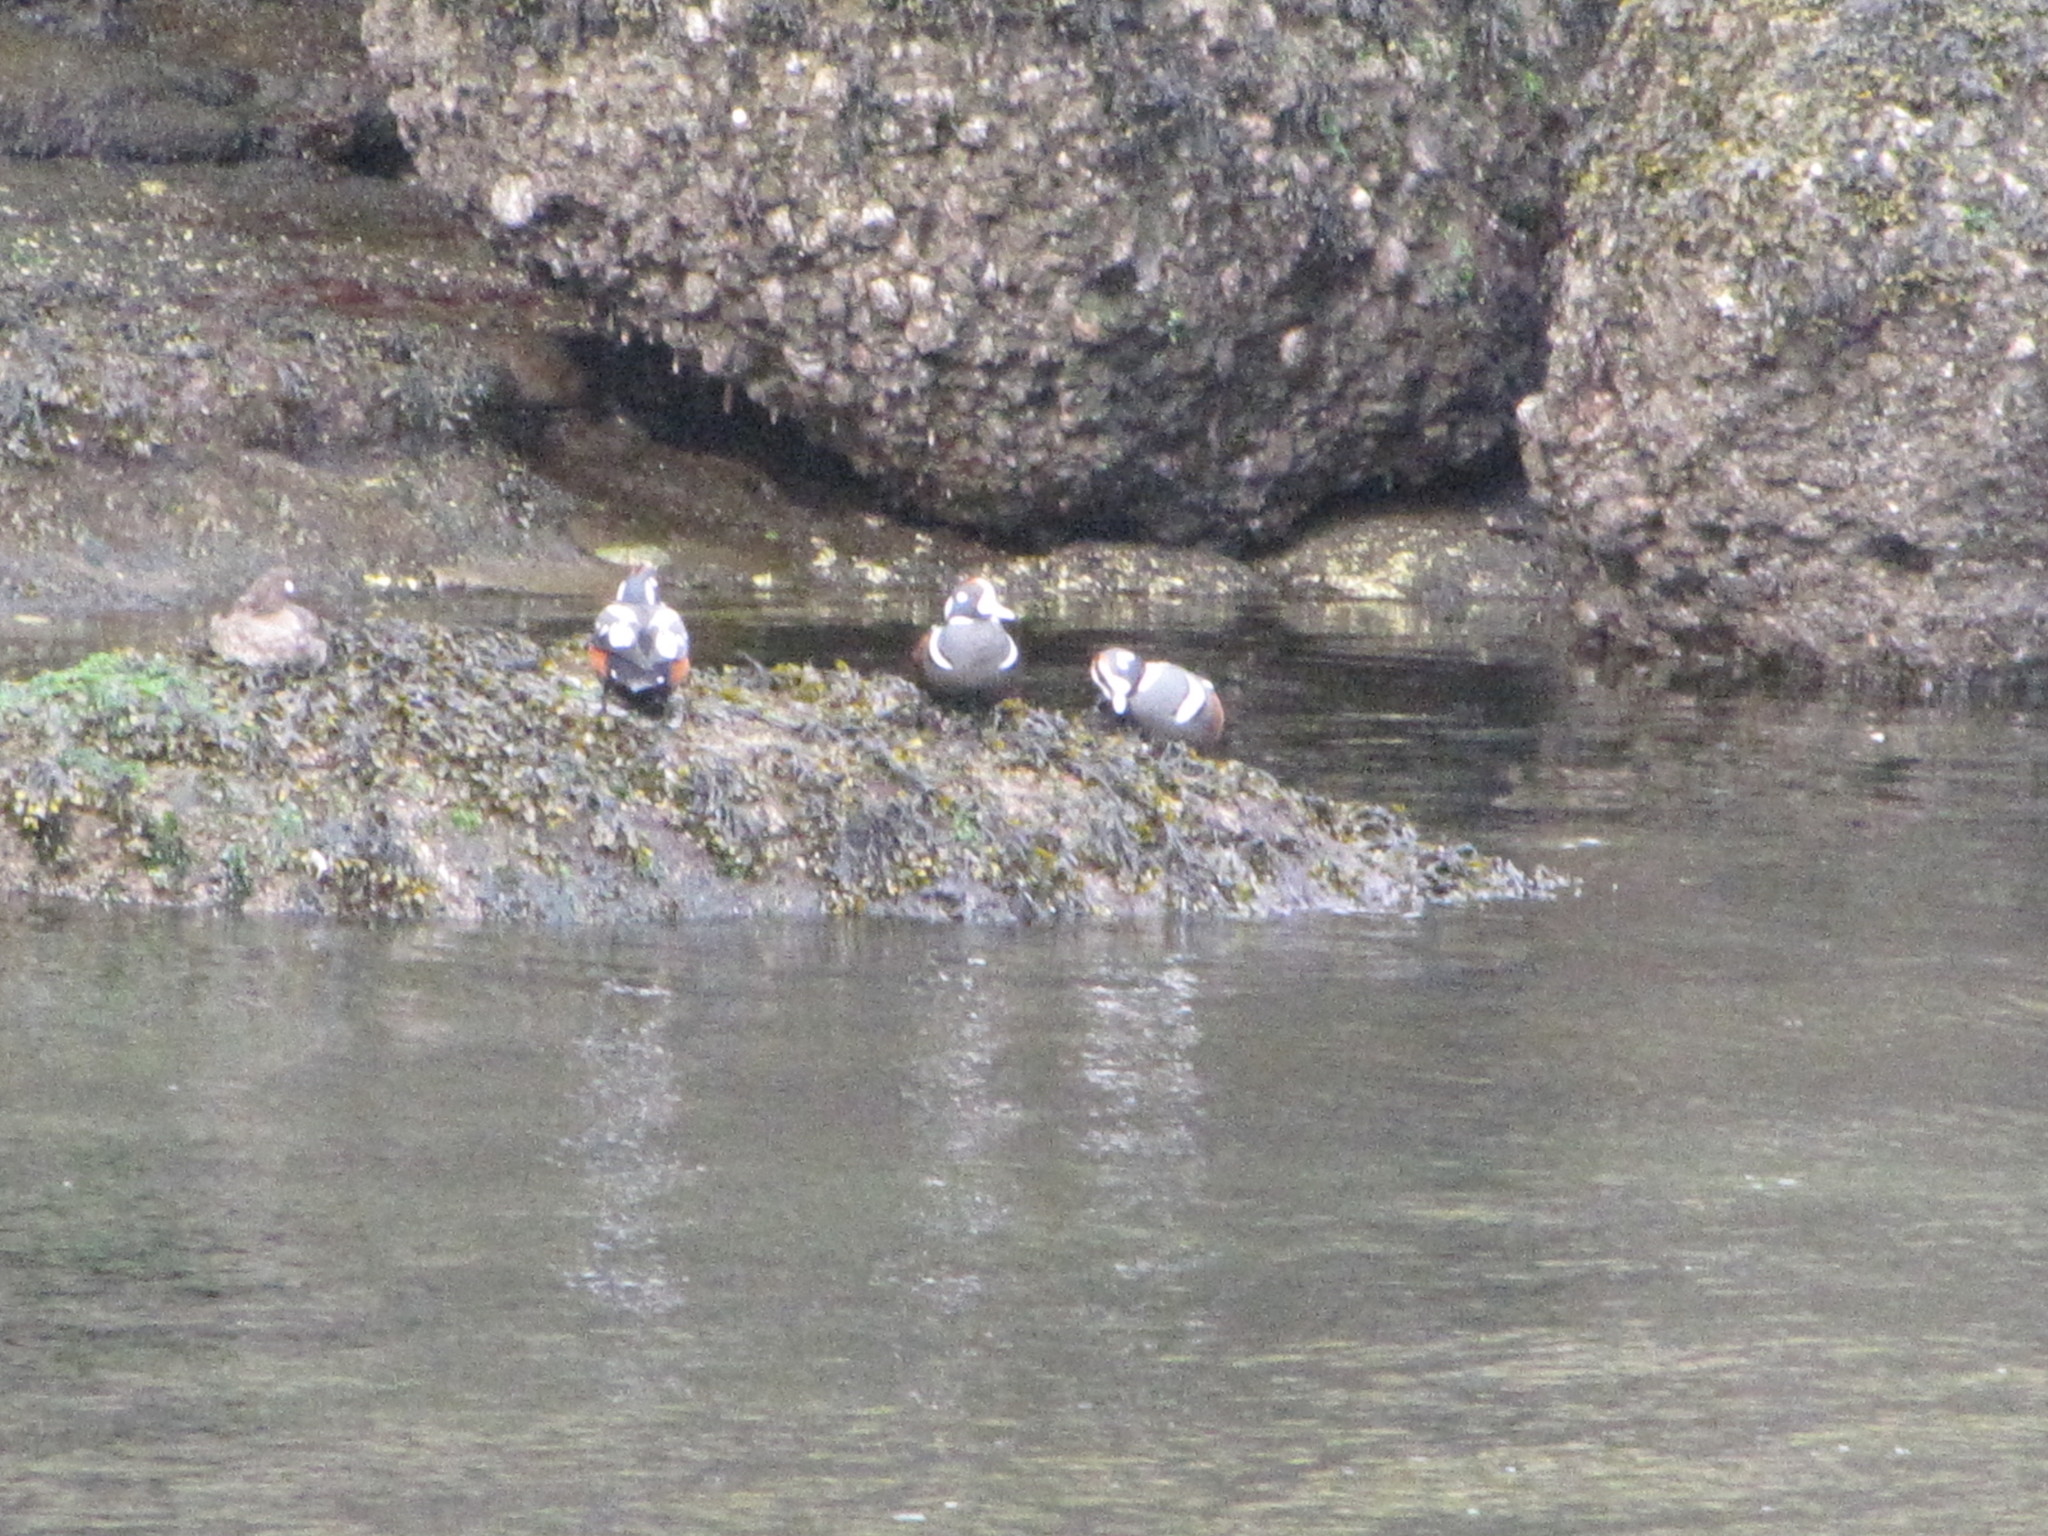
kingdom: Animalia
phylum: Chordata
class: Aves
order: Anseriformes
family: Anatidae
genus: Histrionicus
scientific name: Histrionicus histrionicus
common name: Harlequin duck
